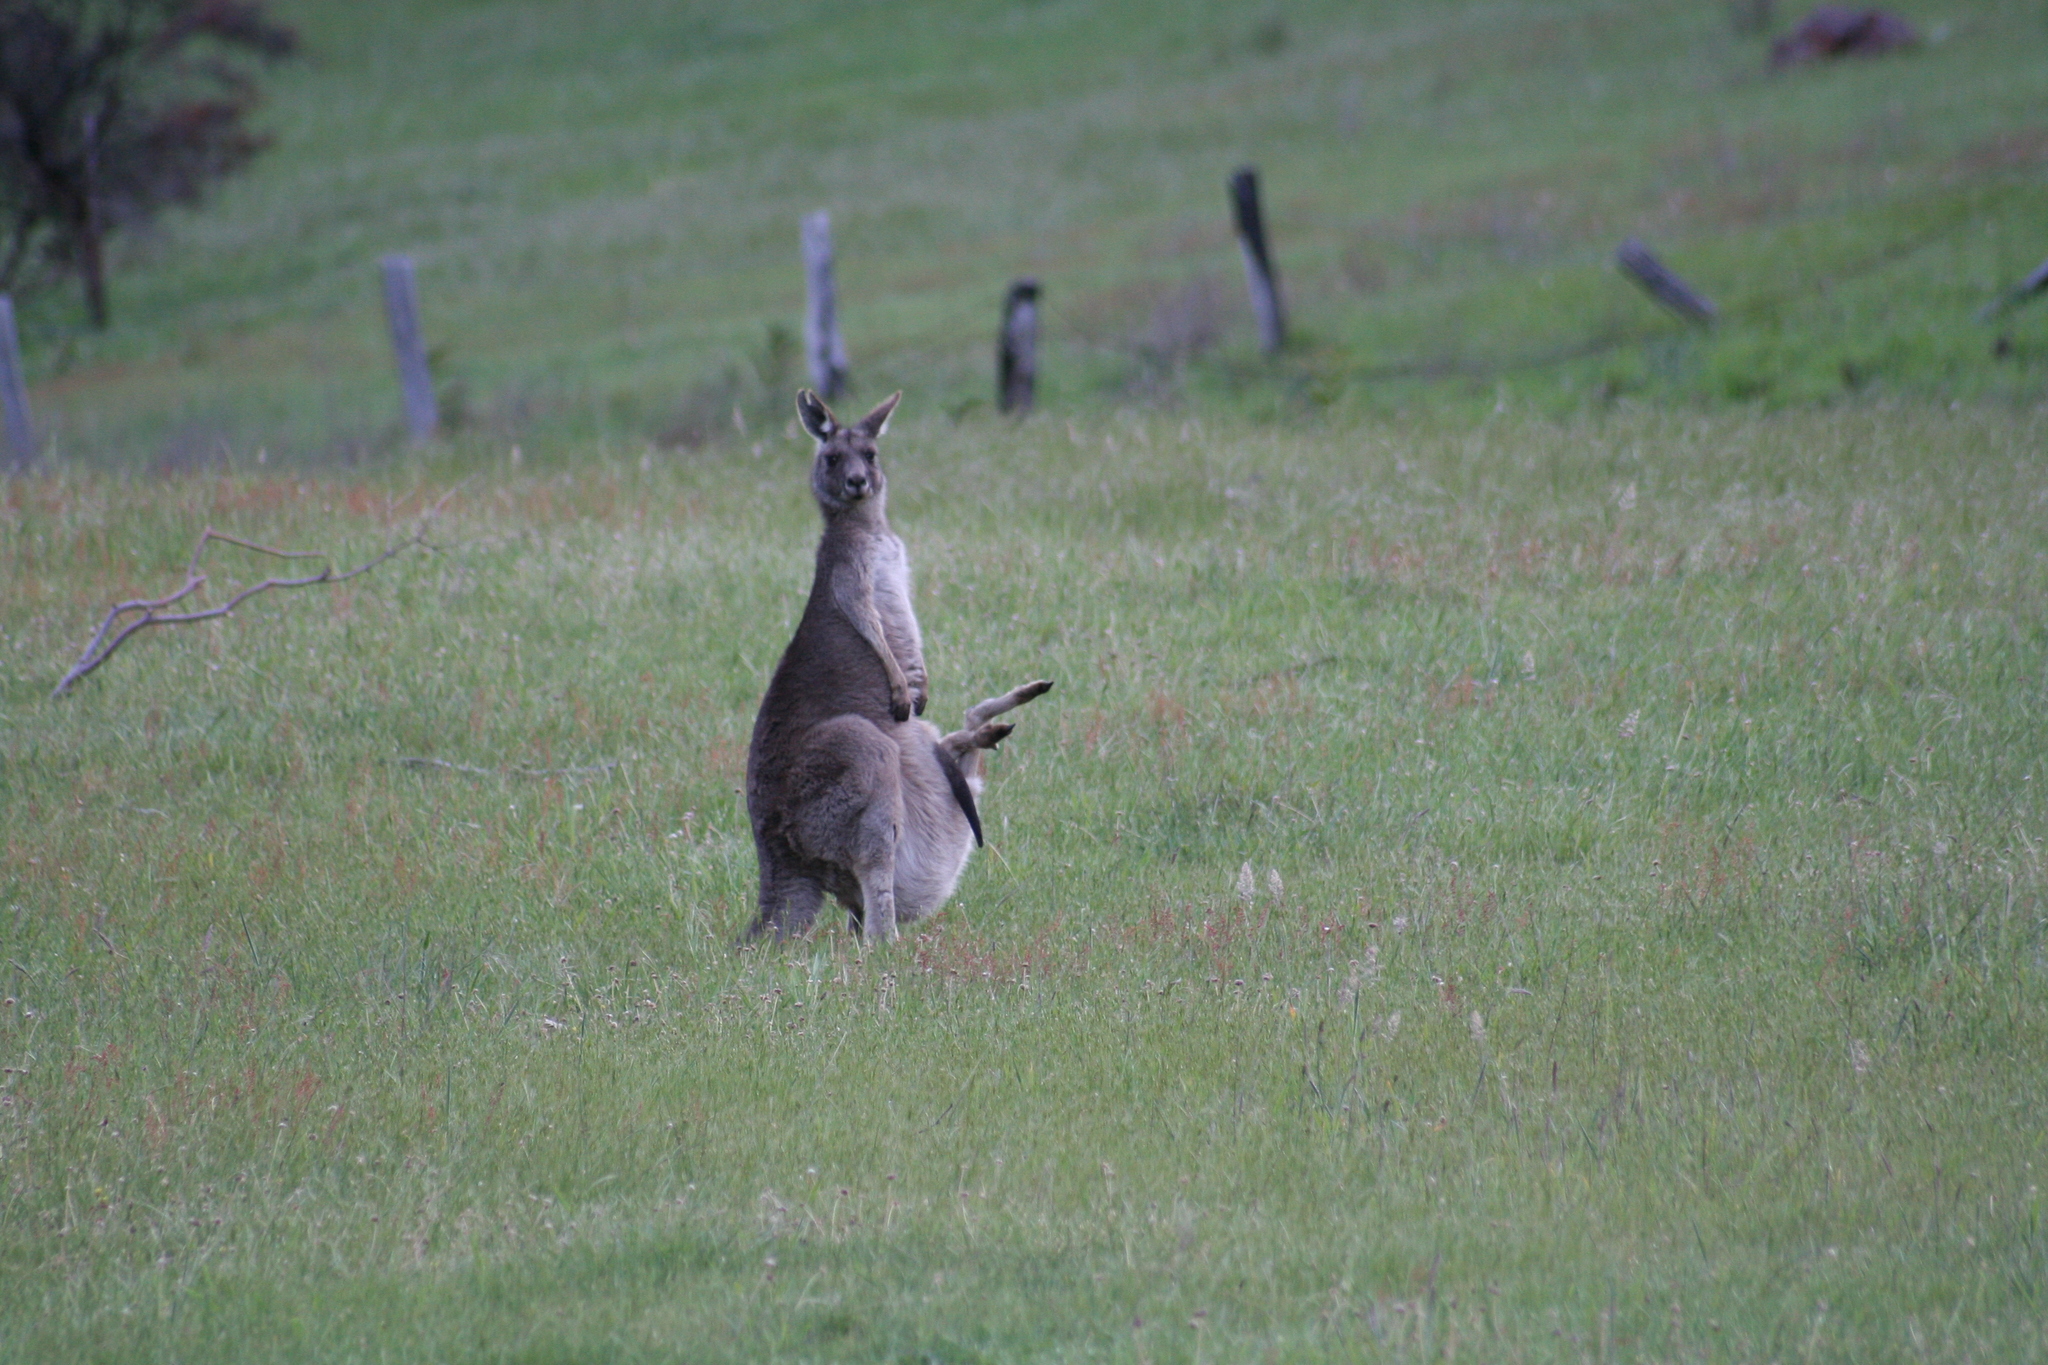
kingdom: Animalia
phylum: Chordata
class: Mammalia
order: Diprotodontia
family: Macropodidae
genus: Macropus
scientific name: Macropus giganteus
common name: Eastern grey kangaroo
